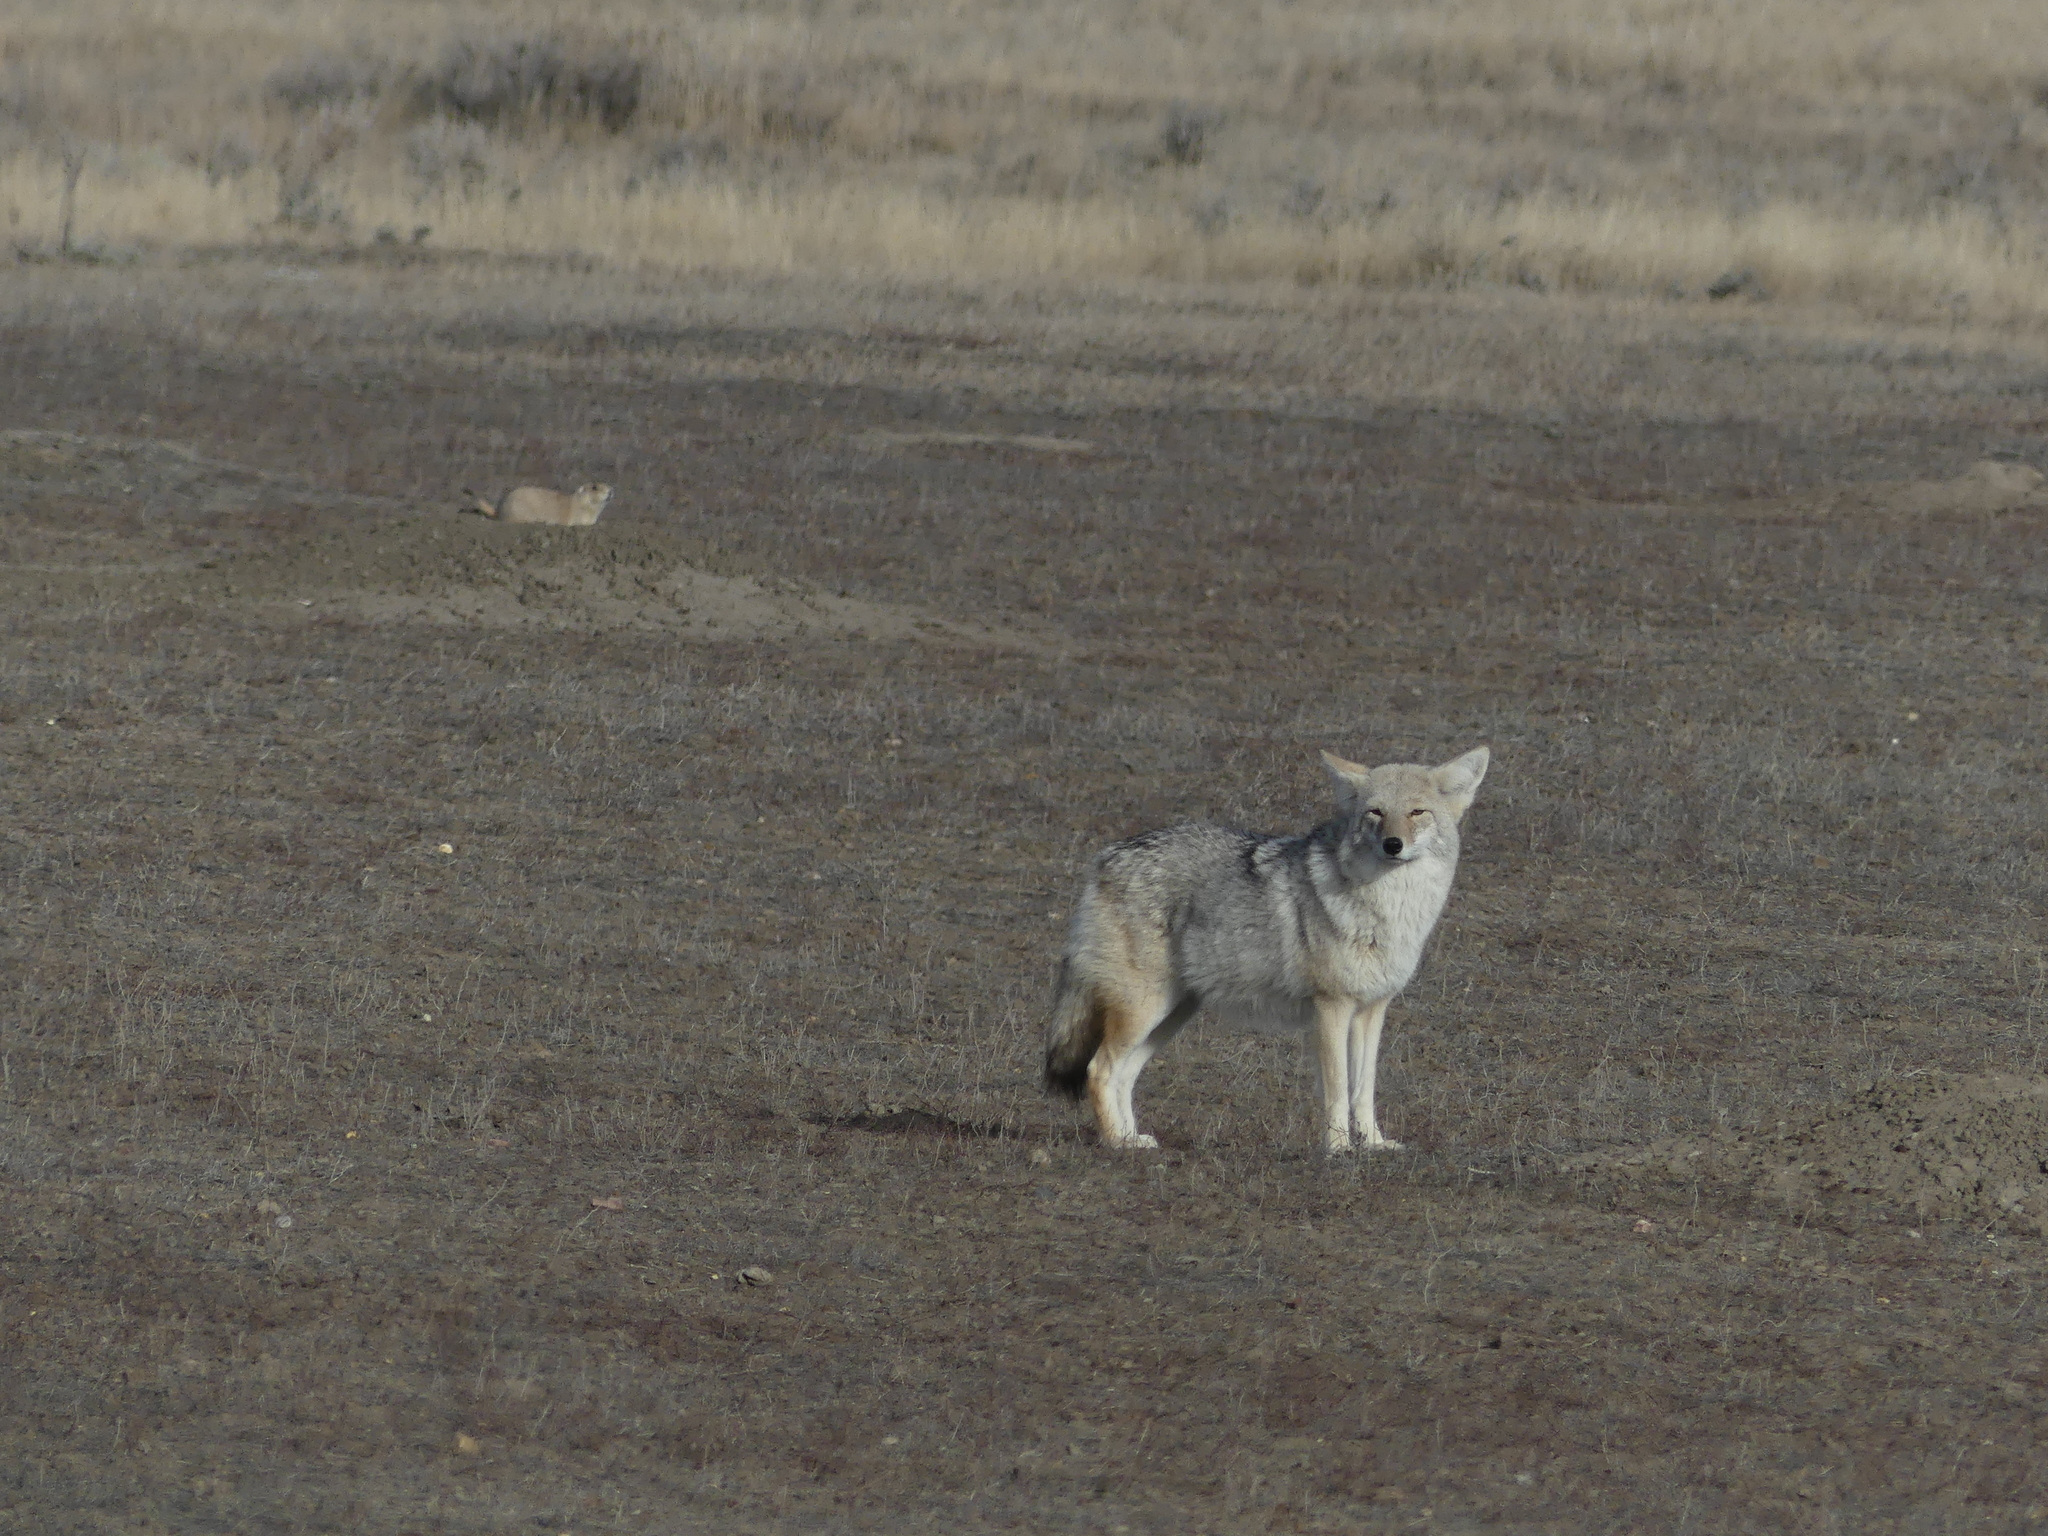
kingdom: Animalia
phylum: Chordata
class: Mammalia
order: Carnivora
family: Canidae
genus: Canis
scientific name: Canis latrans
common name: Coyote
